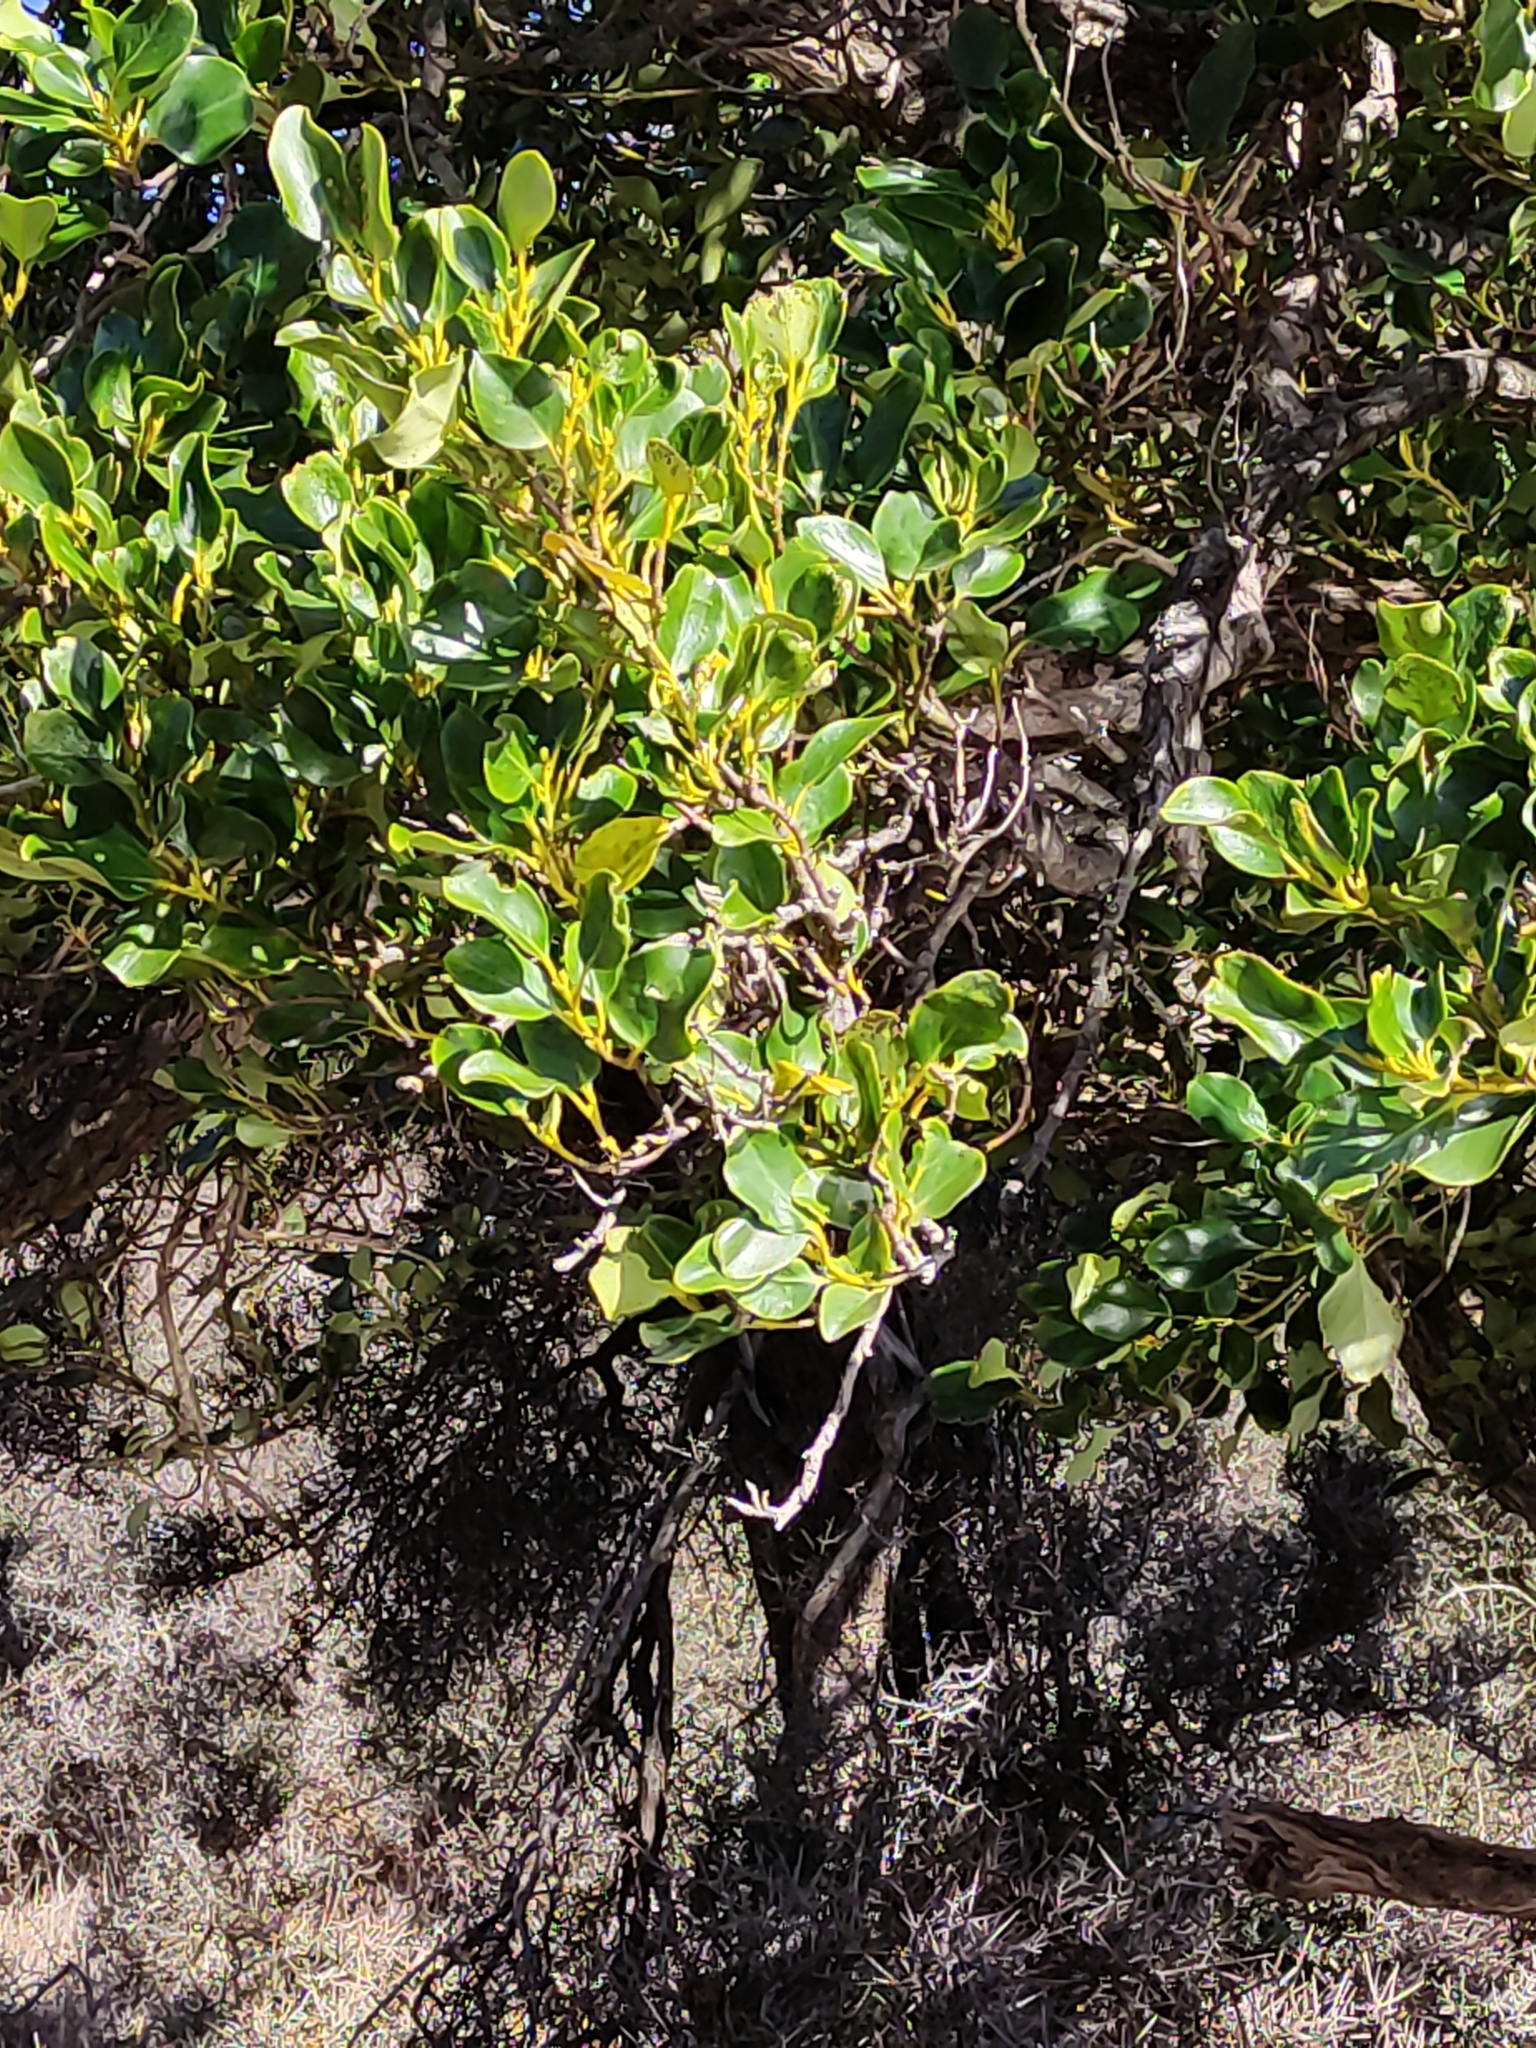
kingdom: Plantae
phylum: Tracheophyta
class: Magnoliopsida
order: Apiales
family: Griseliniaceae
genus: Griselinia
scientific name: Griselinia littoralis
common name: New zealand broadleaf
